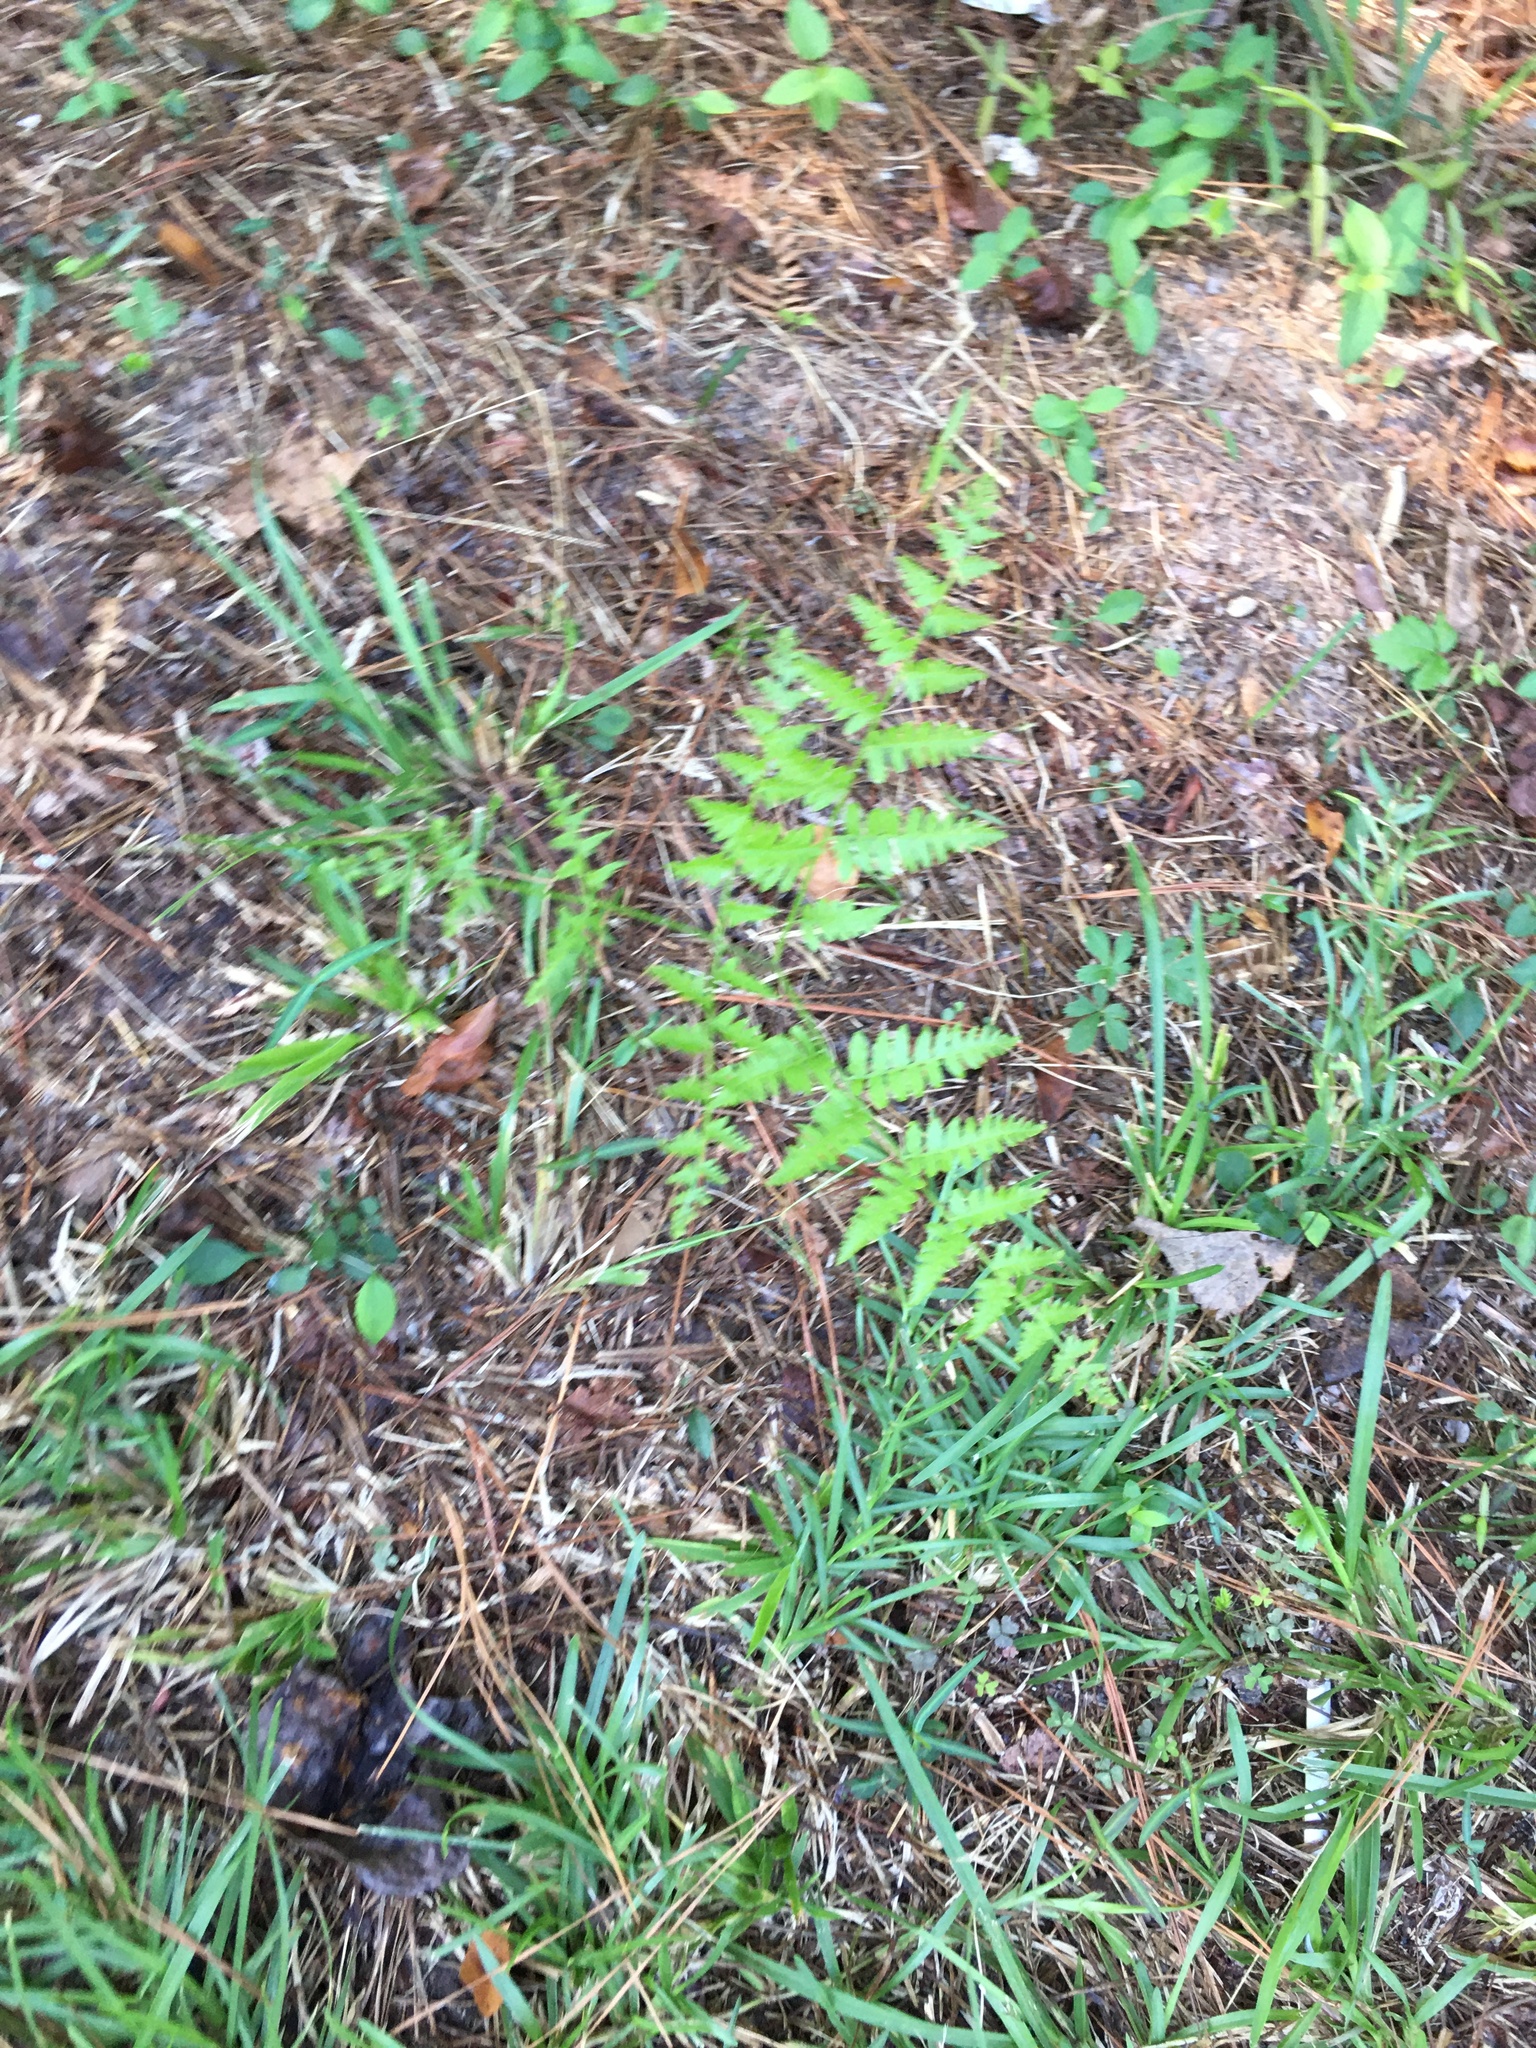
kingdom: Plantae
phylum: Tracheophyta
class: Polypodiopsida
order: Polypodiales
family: Dennstaedtiaceae
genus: Pteridium
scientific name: Pteridium aquilinum
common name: Bracken
